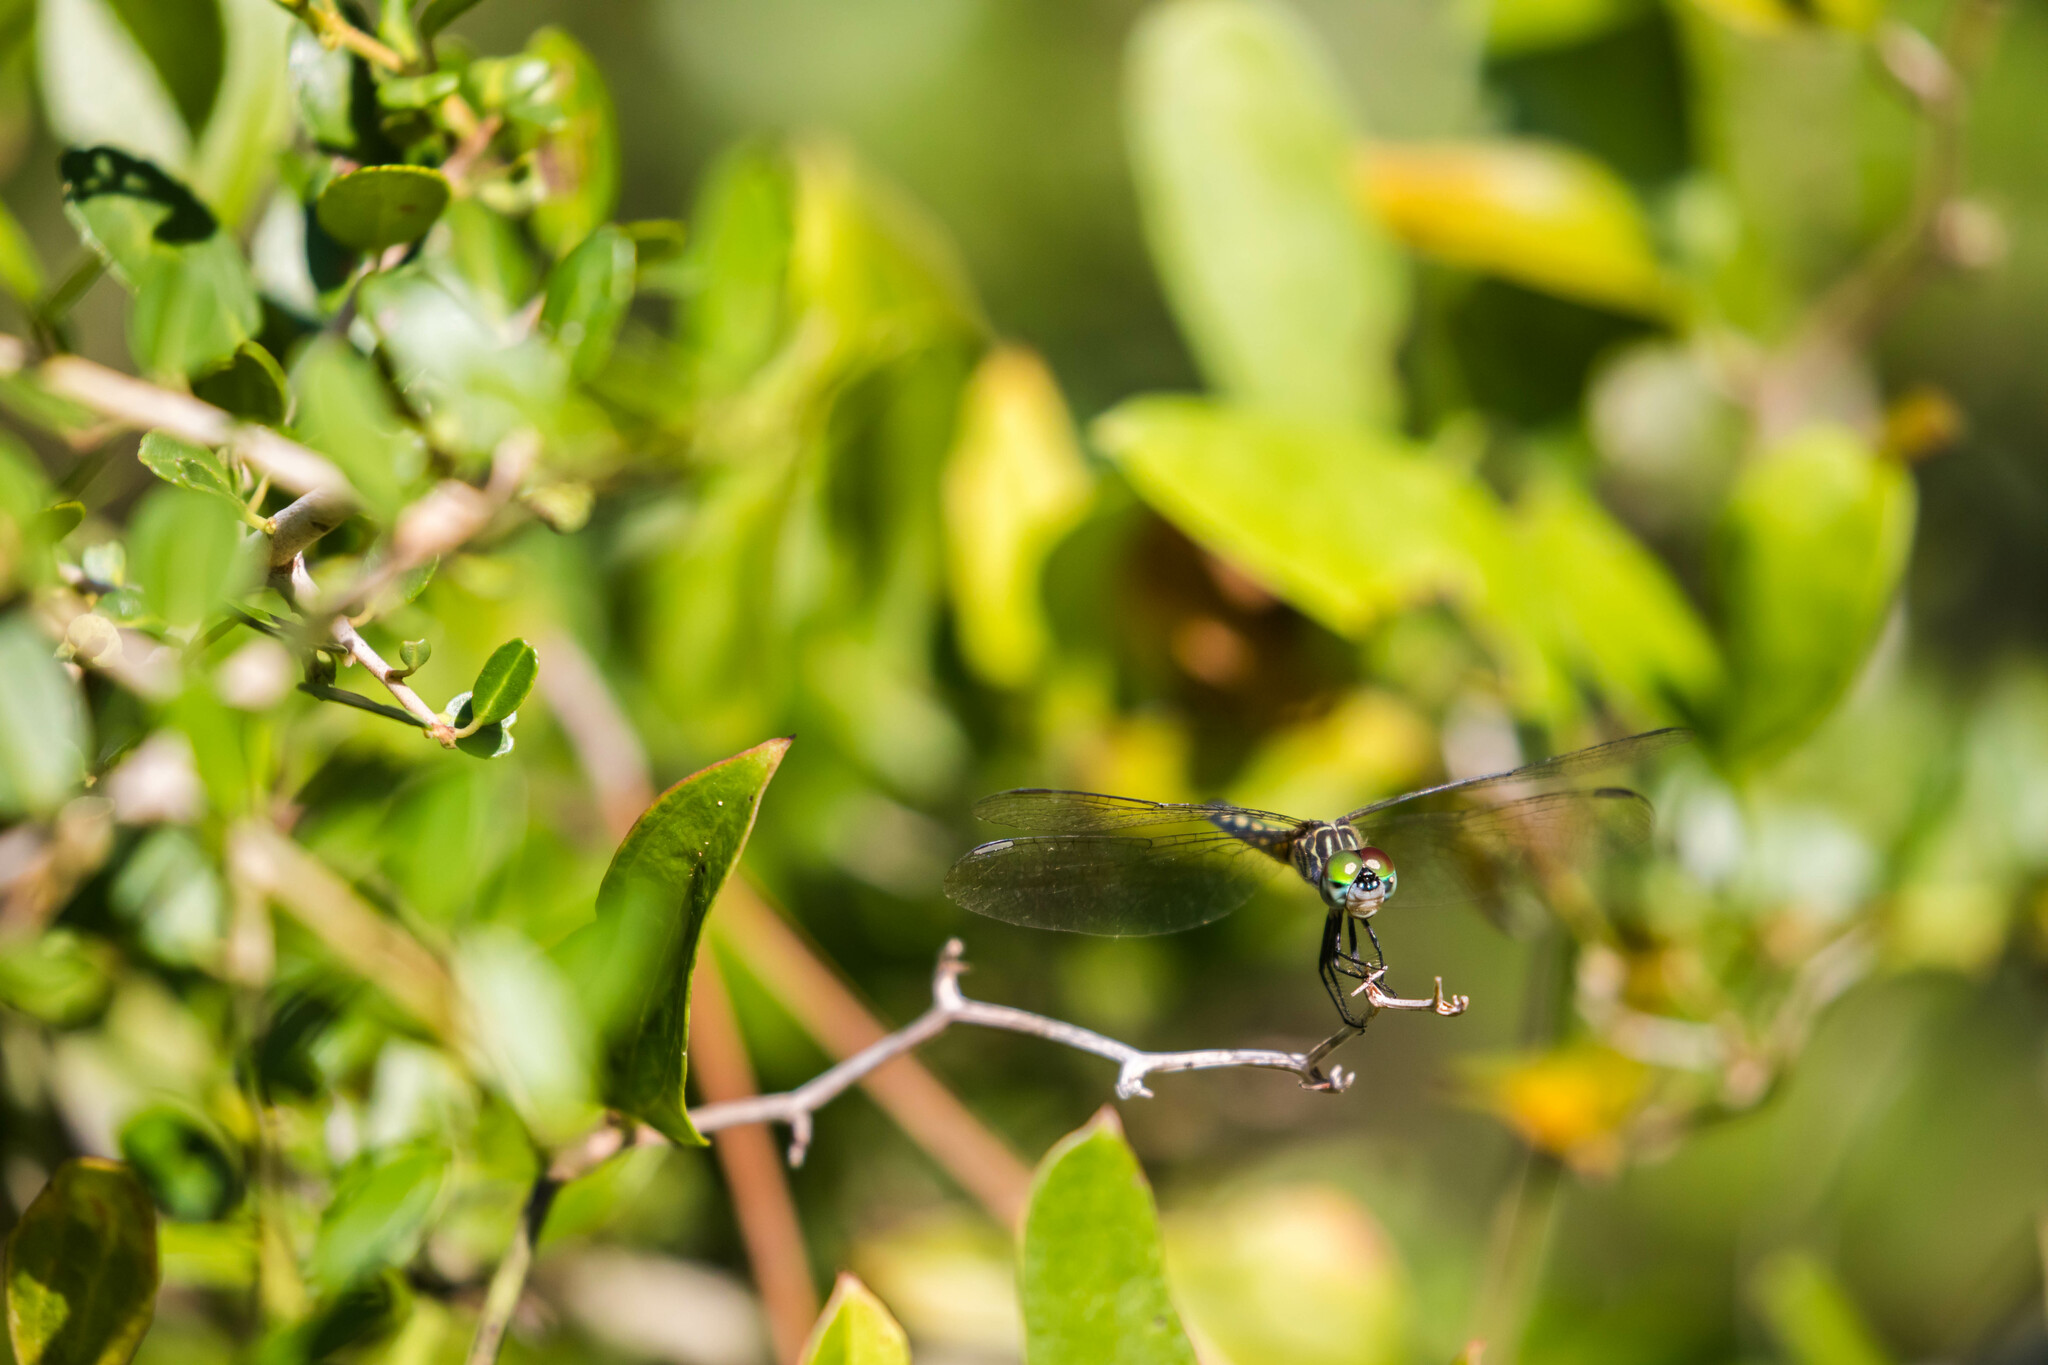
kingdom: Animalia
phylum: Arthropoda
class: Insecta
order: Odonata
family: Libellulidae
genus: Pachydiplax
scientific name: Pachydiplax longipennis
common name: Blue dasher
